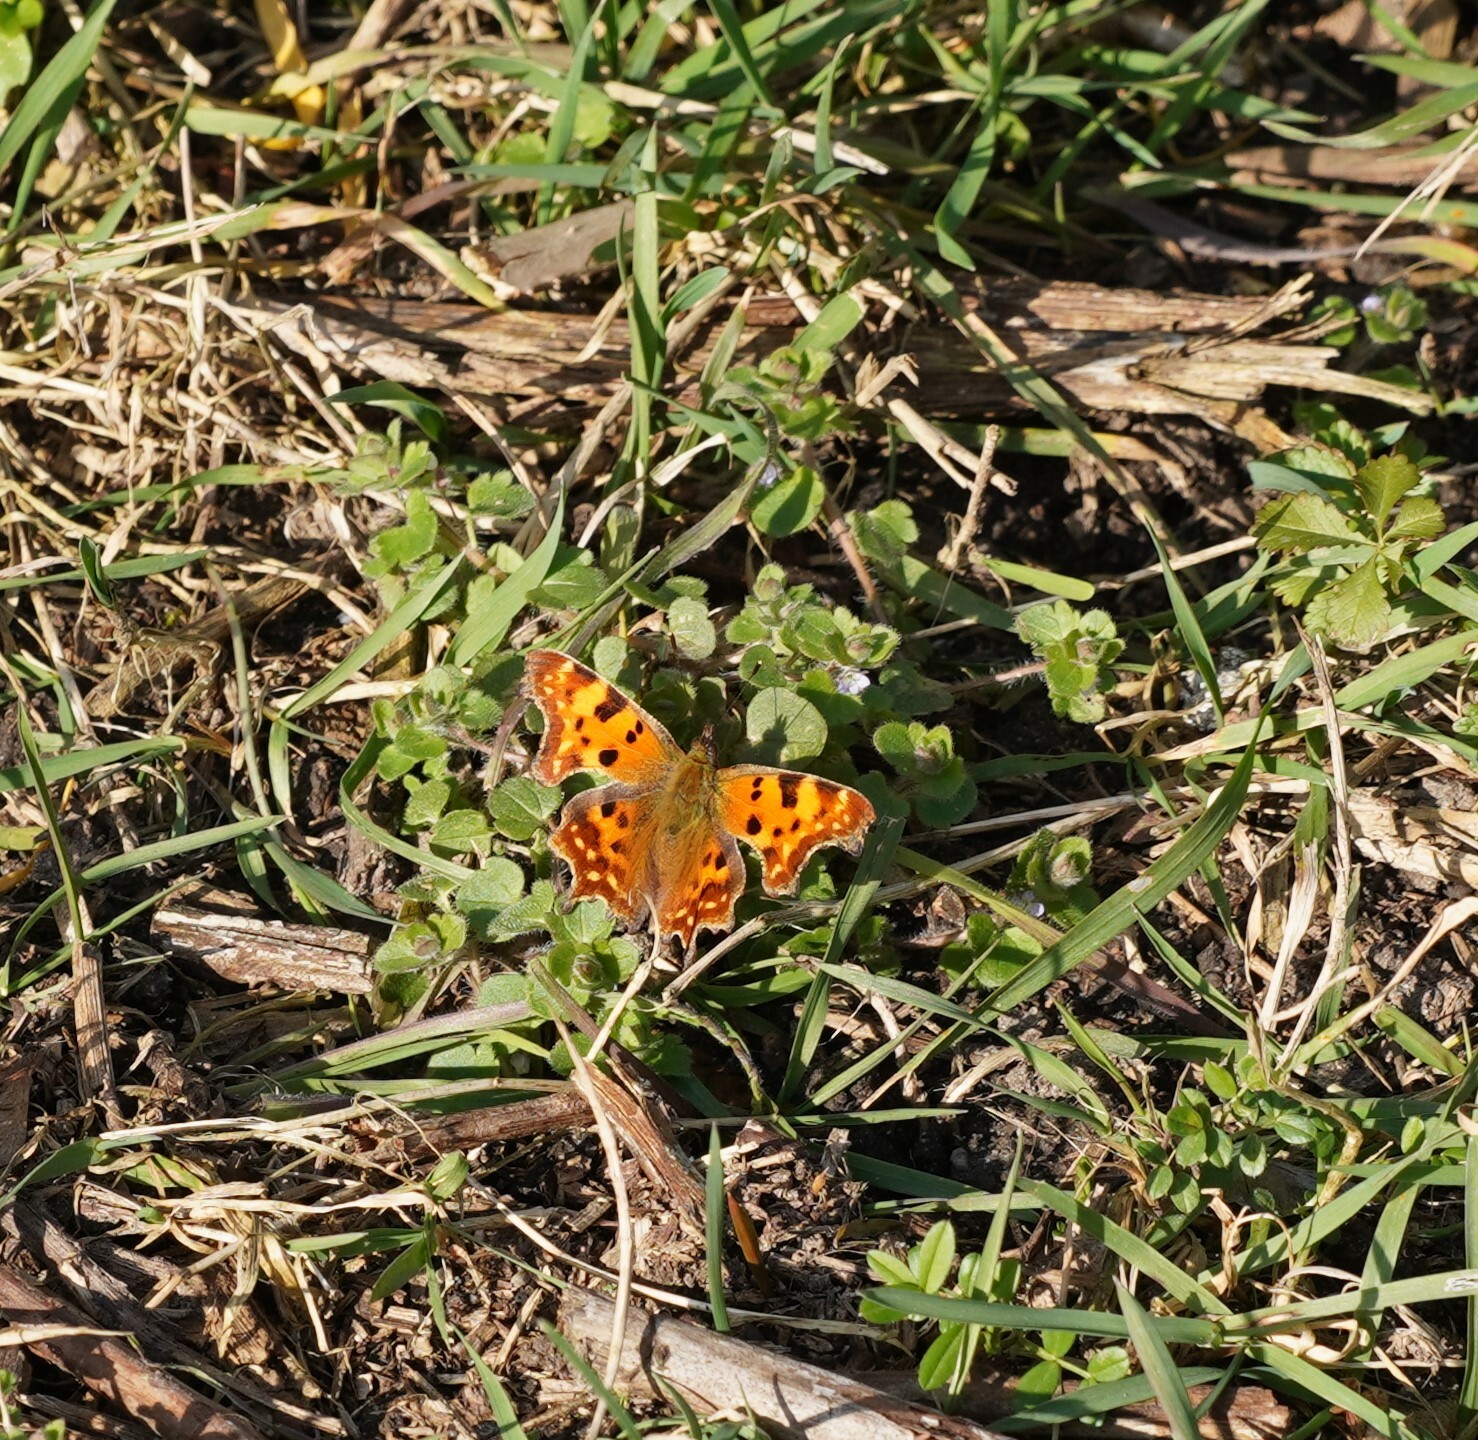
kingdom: Animalia
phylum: Arthropoda
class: Insecta
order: Lepidoptera
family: Nymphalidae
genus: Polygonia
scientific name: Polygonia c-album
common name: Comma
